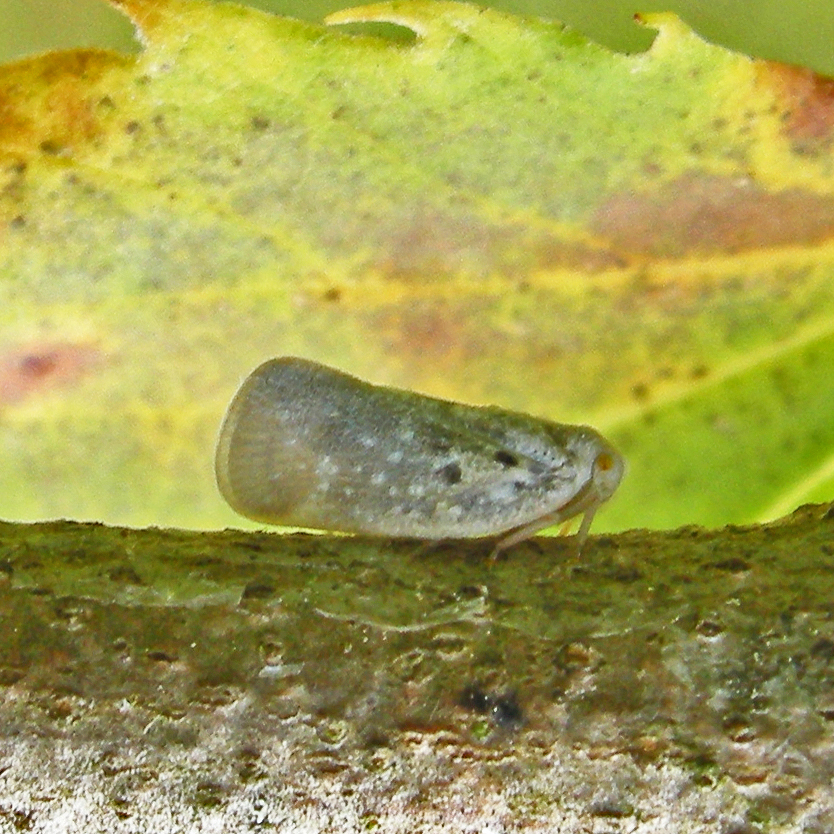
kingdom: Animalia
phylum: Arthropoda
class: Insecta
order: Hemiptera
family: Flatidae
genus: Metcalfa
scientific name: Metcalfa pruinosa
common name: Citrus flatid planthopper
